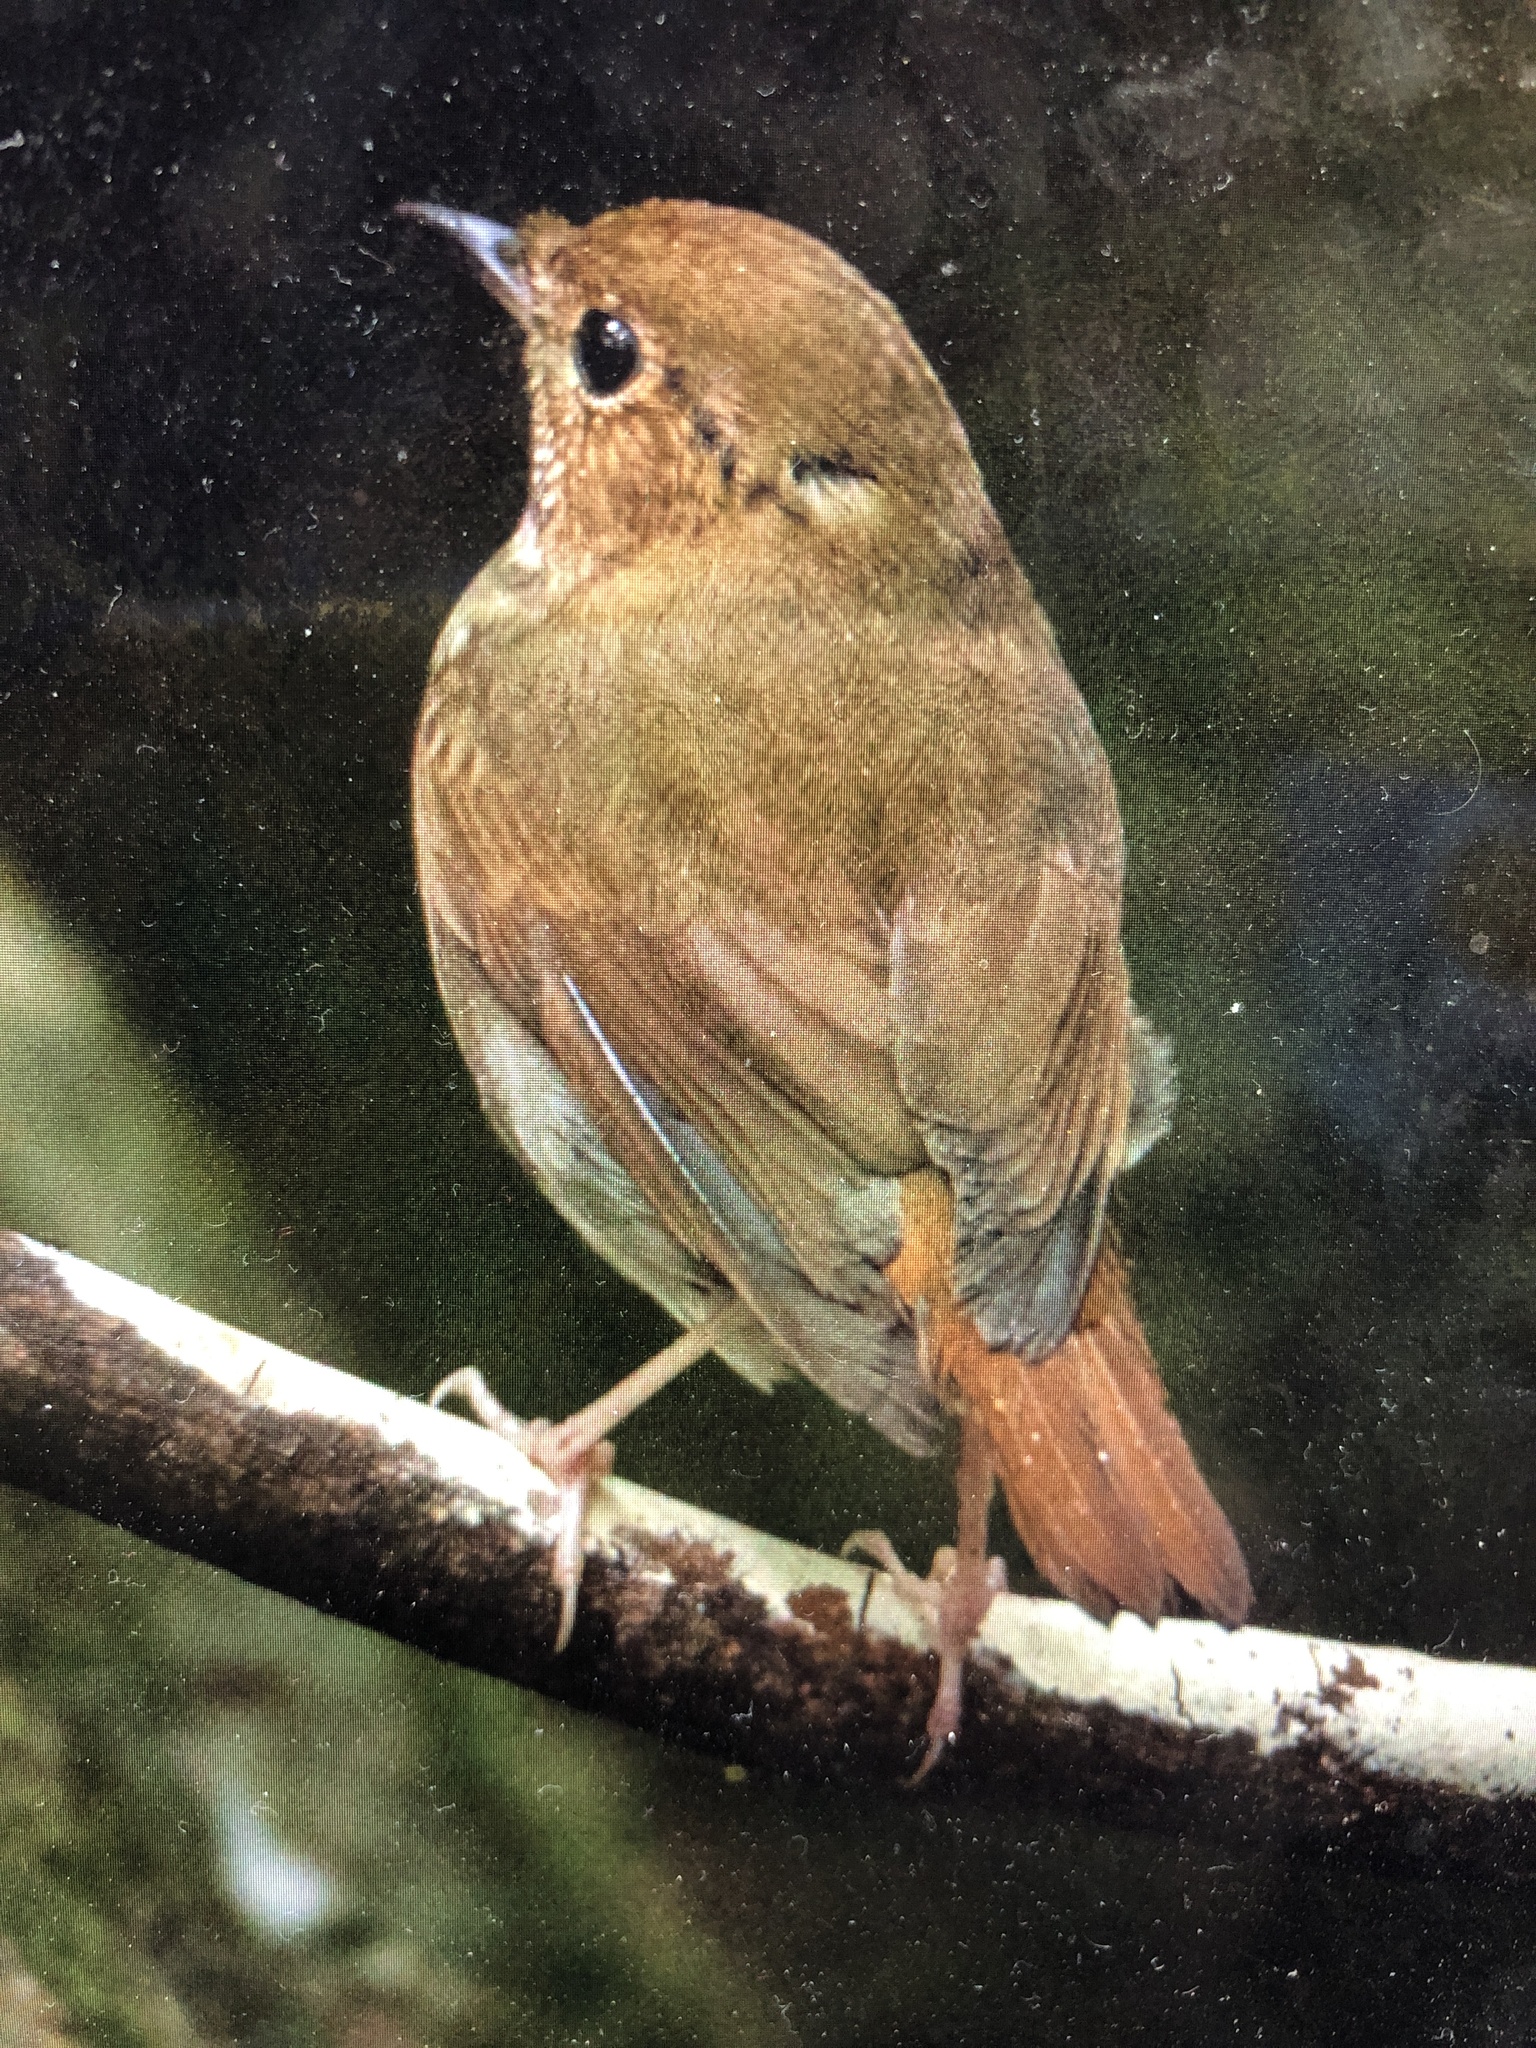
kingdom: Animalia
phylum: Chordata
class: Aves
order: Passeriformes
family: Muscicapidae
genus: Larvivora
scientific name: Larvivora sibilans
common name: Rufous-tailed robin
